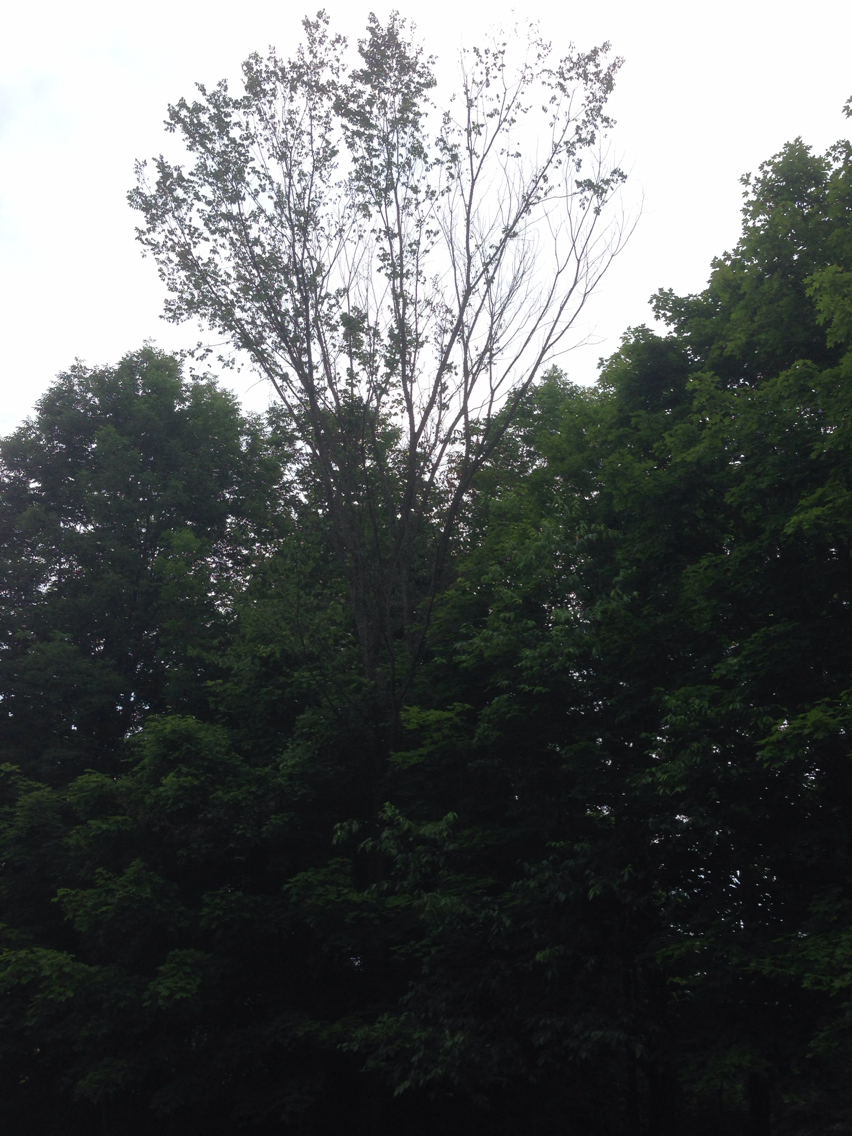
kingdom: Plantae
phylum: Tracheophyta
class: Magnoliopsida
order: Rosales
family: Ulmaceae
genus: Ulmus
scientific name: Ulmus americana
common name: American elm
